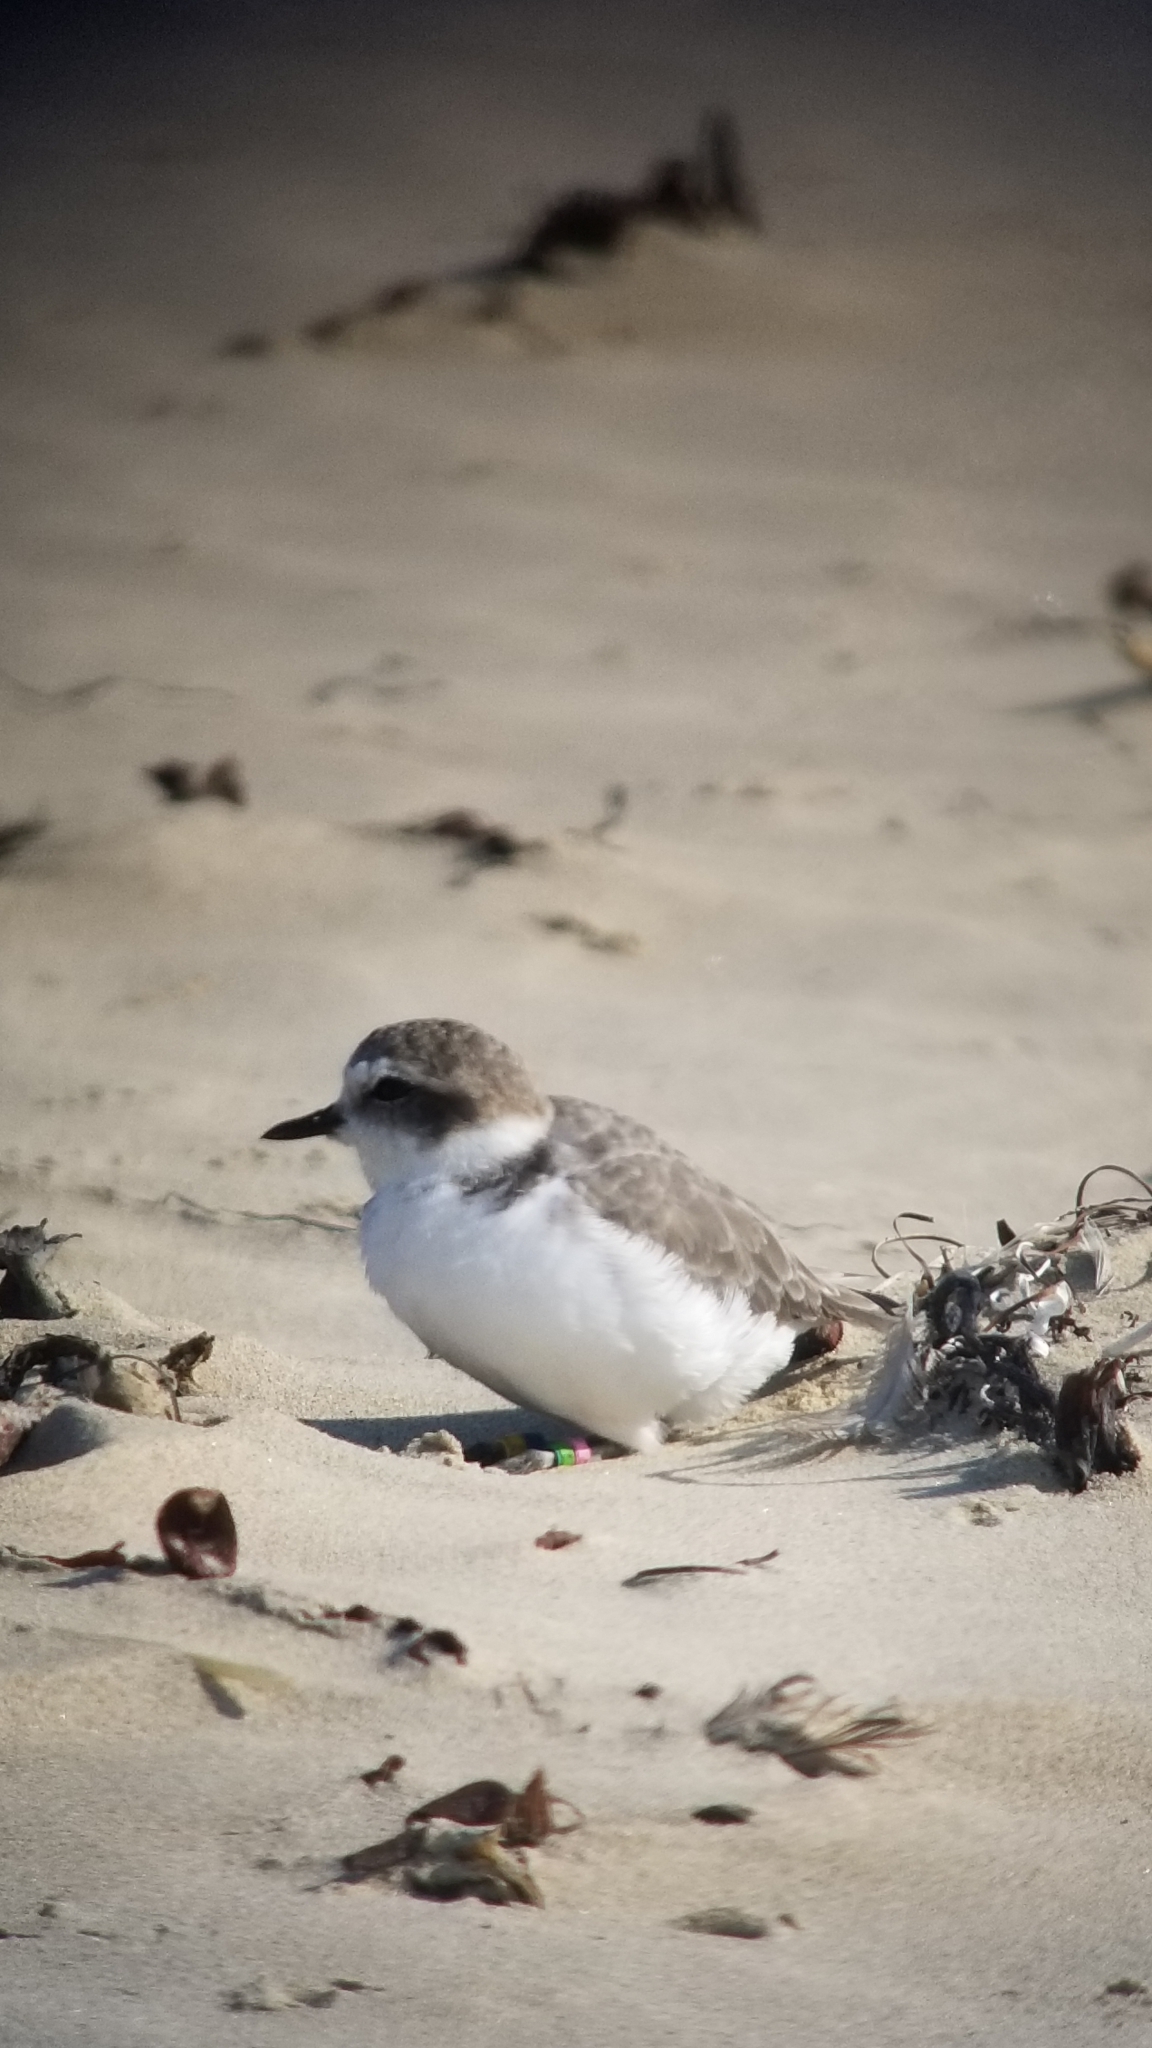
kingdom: Animalia
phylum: Chordata
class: Aves
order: Charadriiformes
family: Charadriidae
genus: Anarhynchus
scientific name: Anarhynchus
